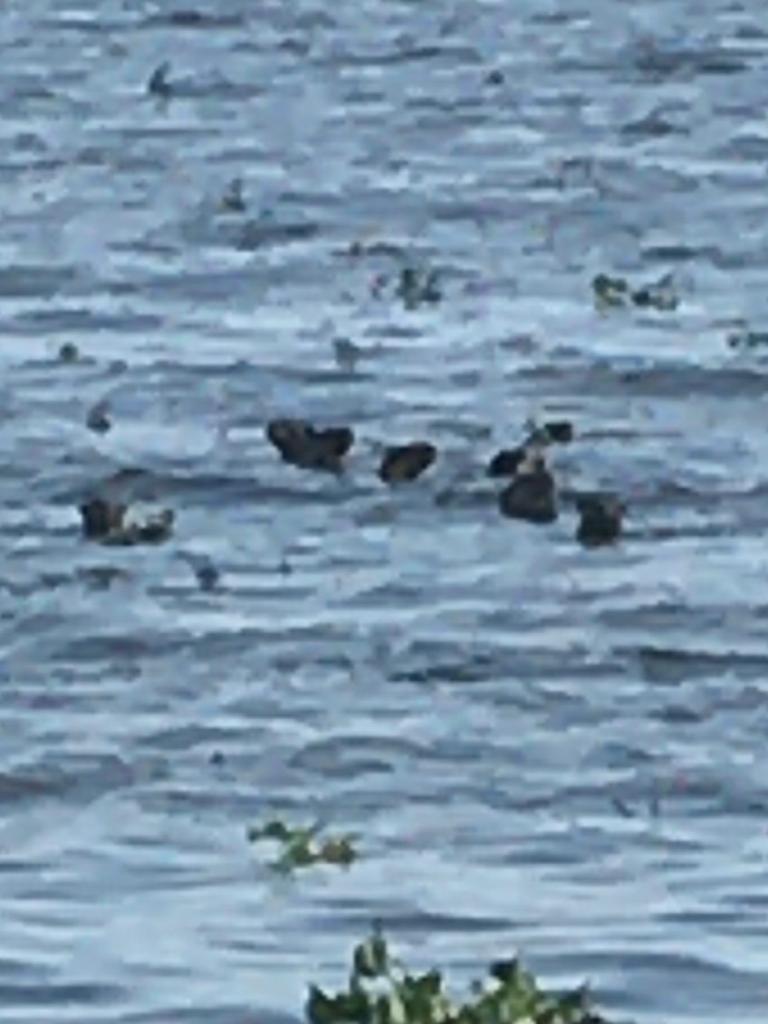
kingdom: Animalia
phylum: Chordata
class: Mammalia
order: Carnivora
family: Mustelidae
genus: Lutrogale
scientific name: Lutrogale perspicillata
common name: Smooth-coated otter
